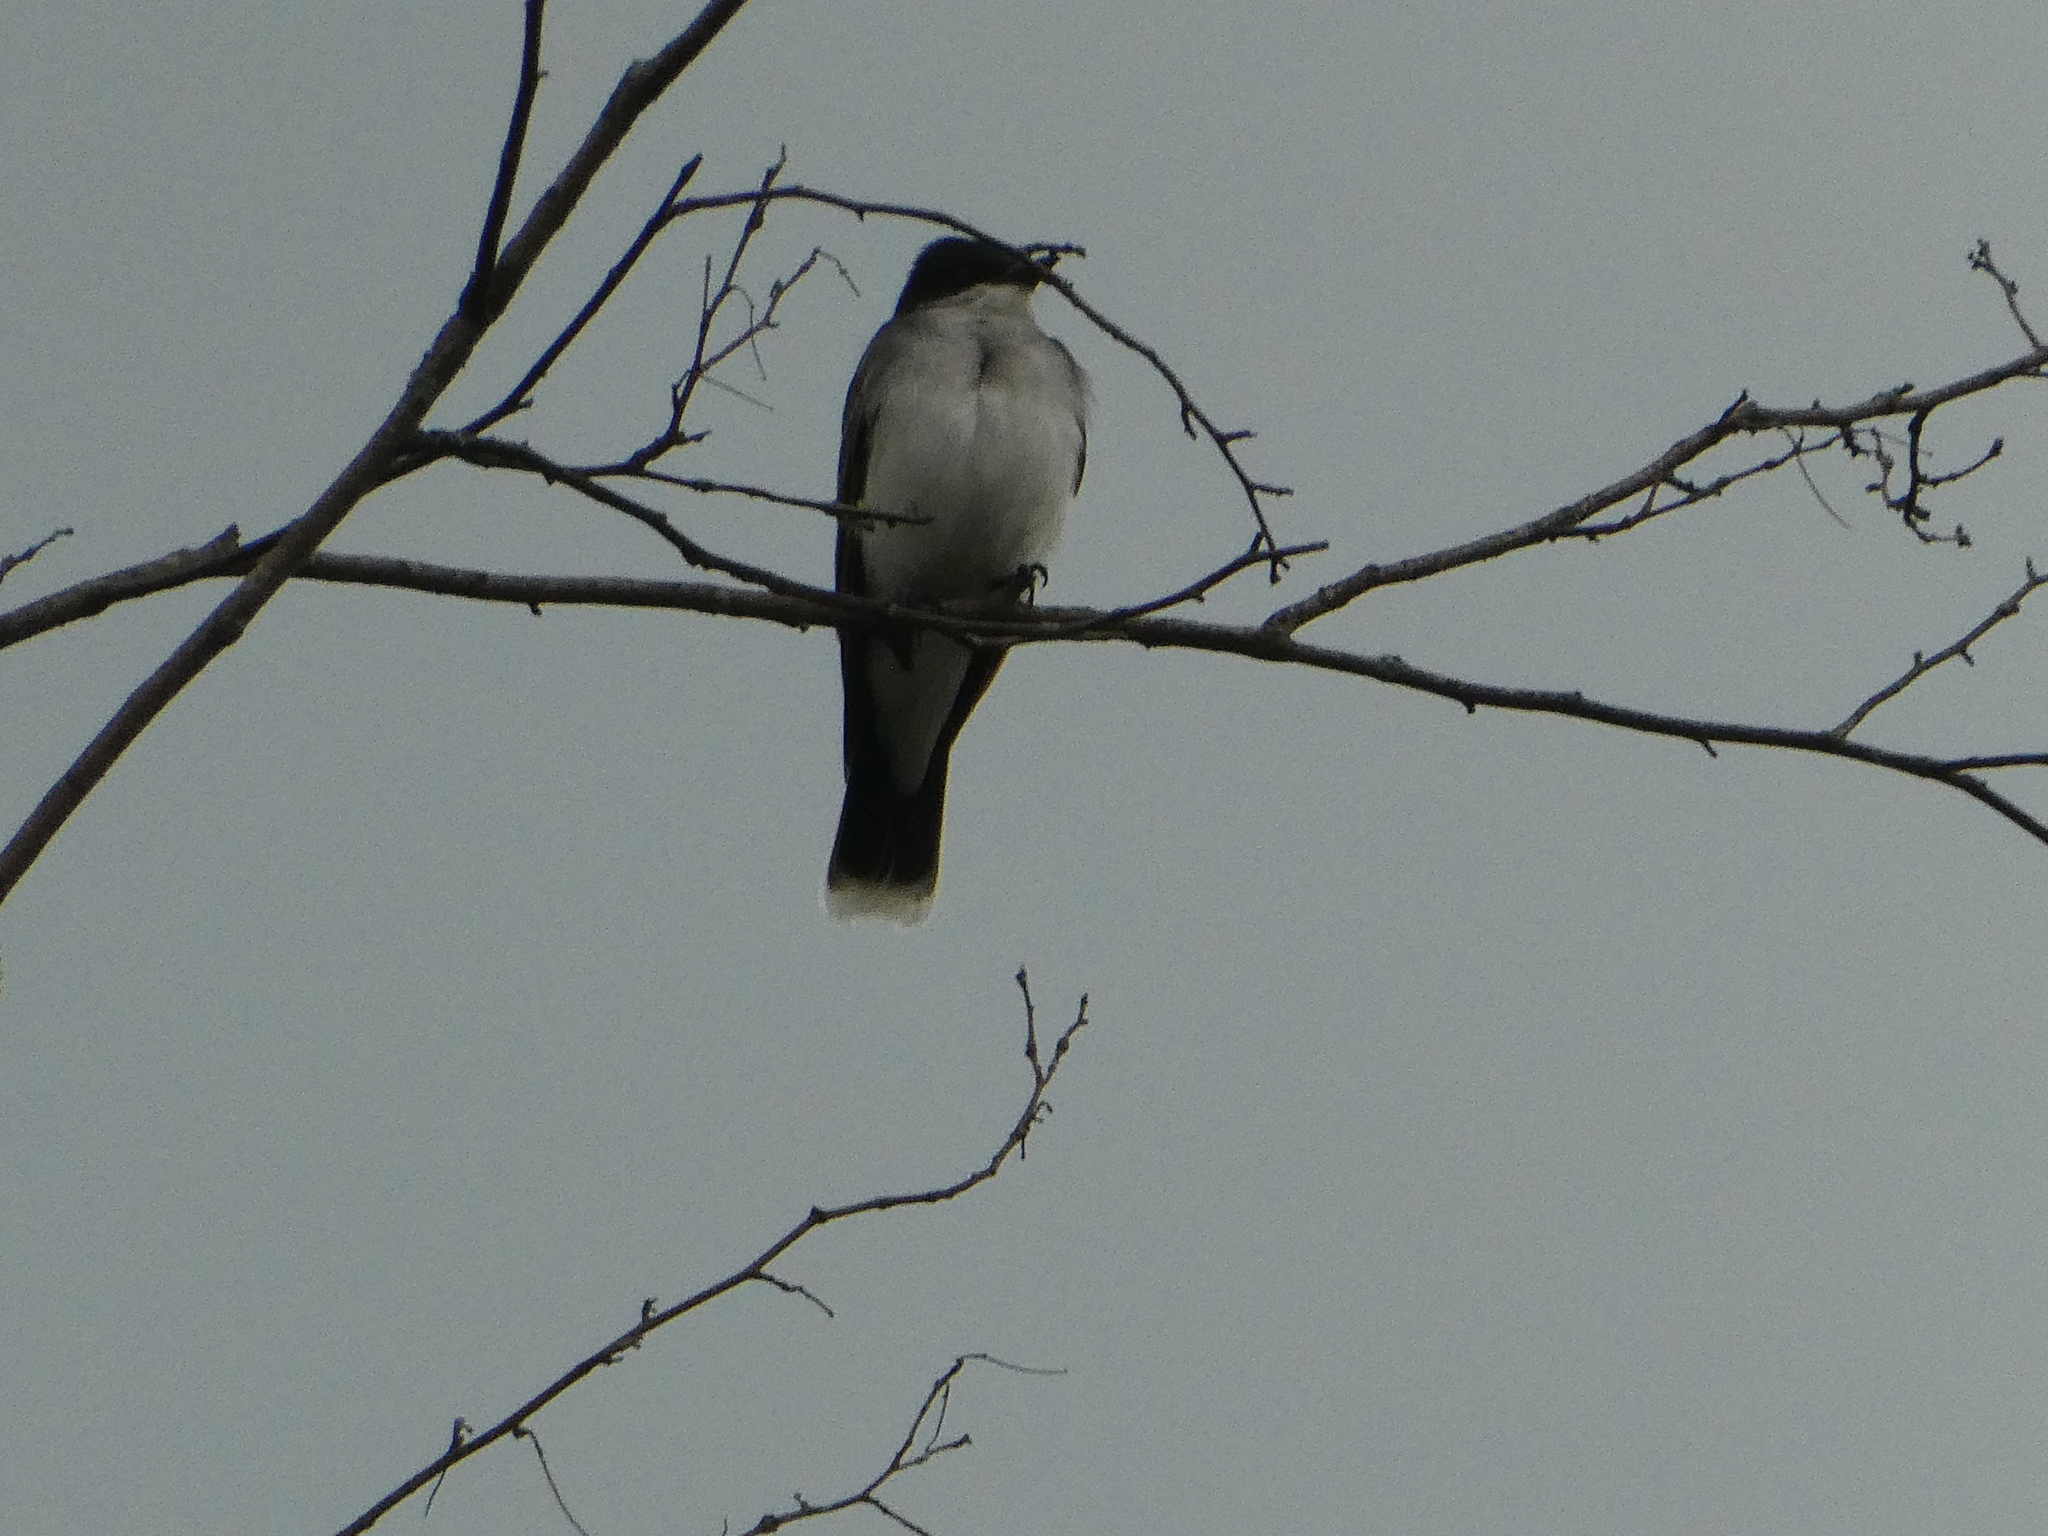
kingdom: Animalia
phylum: Chordata
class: Aves
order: Passeriformes
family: Tyrannidae
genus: Tyrannus
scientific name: Tyrannus tyrannus
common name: Eastern kingbird
